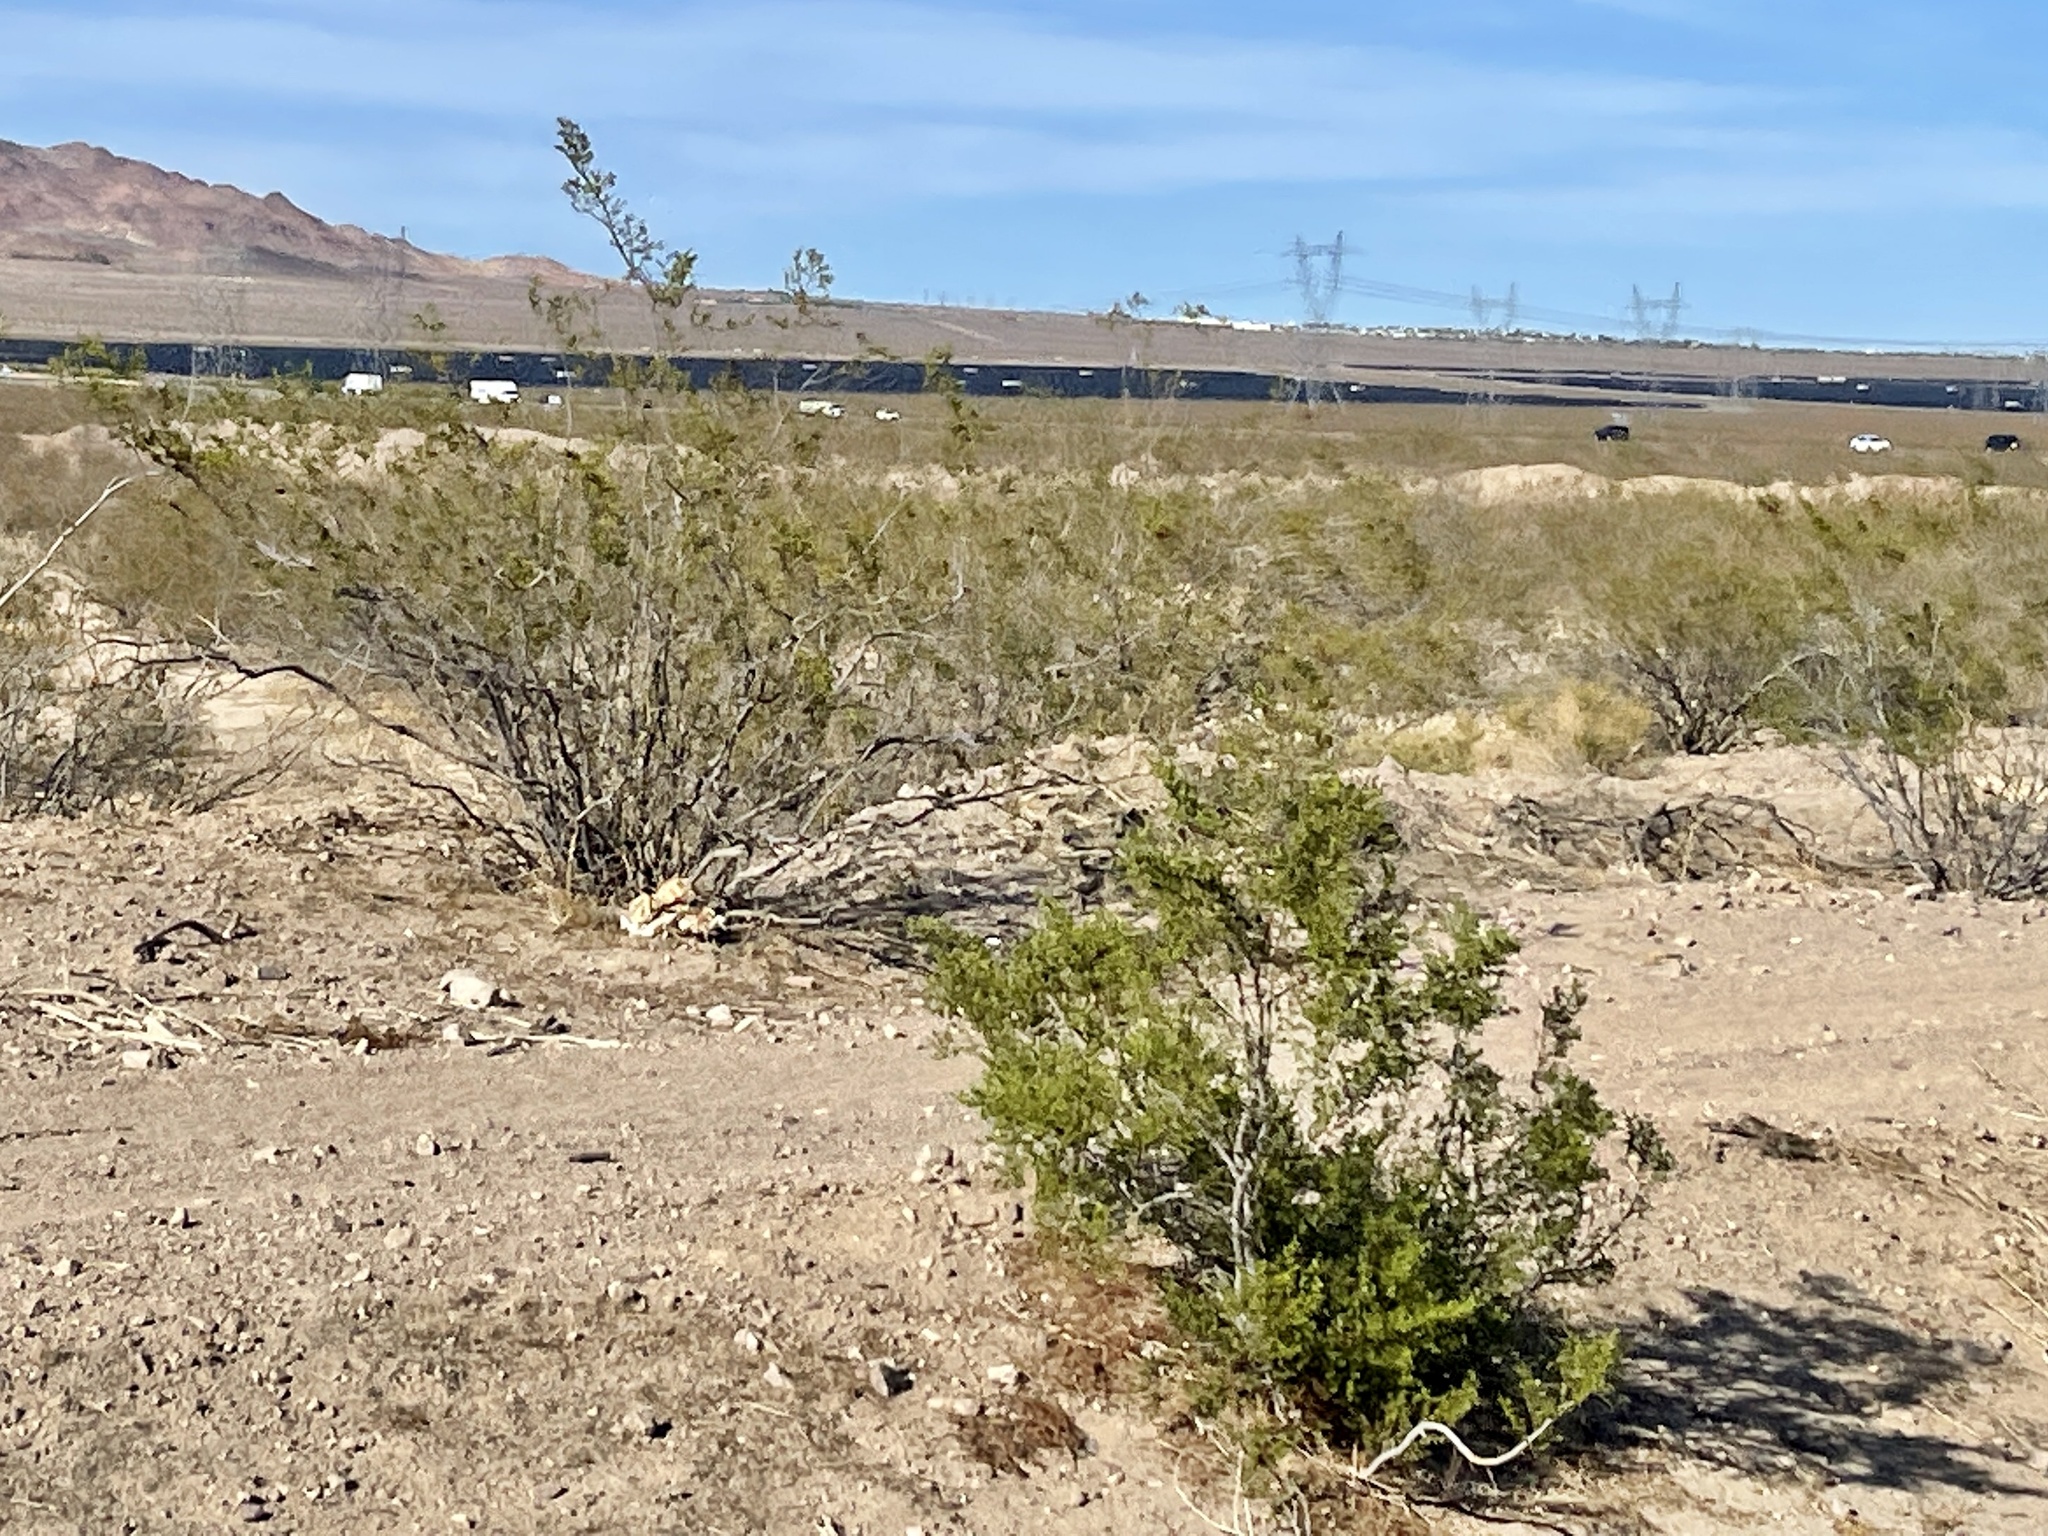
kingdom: Plantae
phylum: Tracheophyta
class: Magnoliopsida
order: Zygophyllales
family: Zygophyllaceae
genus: Larrea
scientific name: Larrea tridentata
